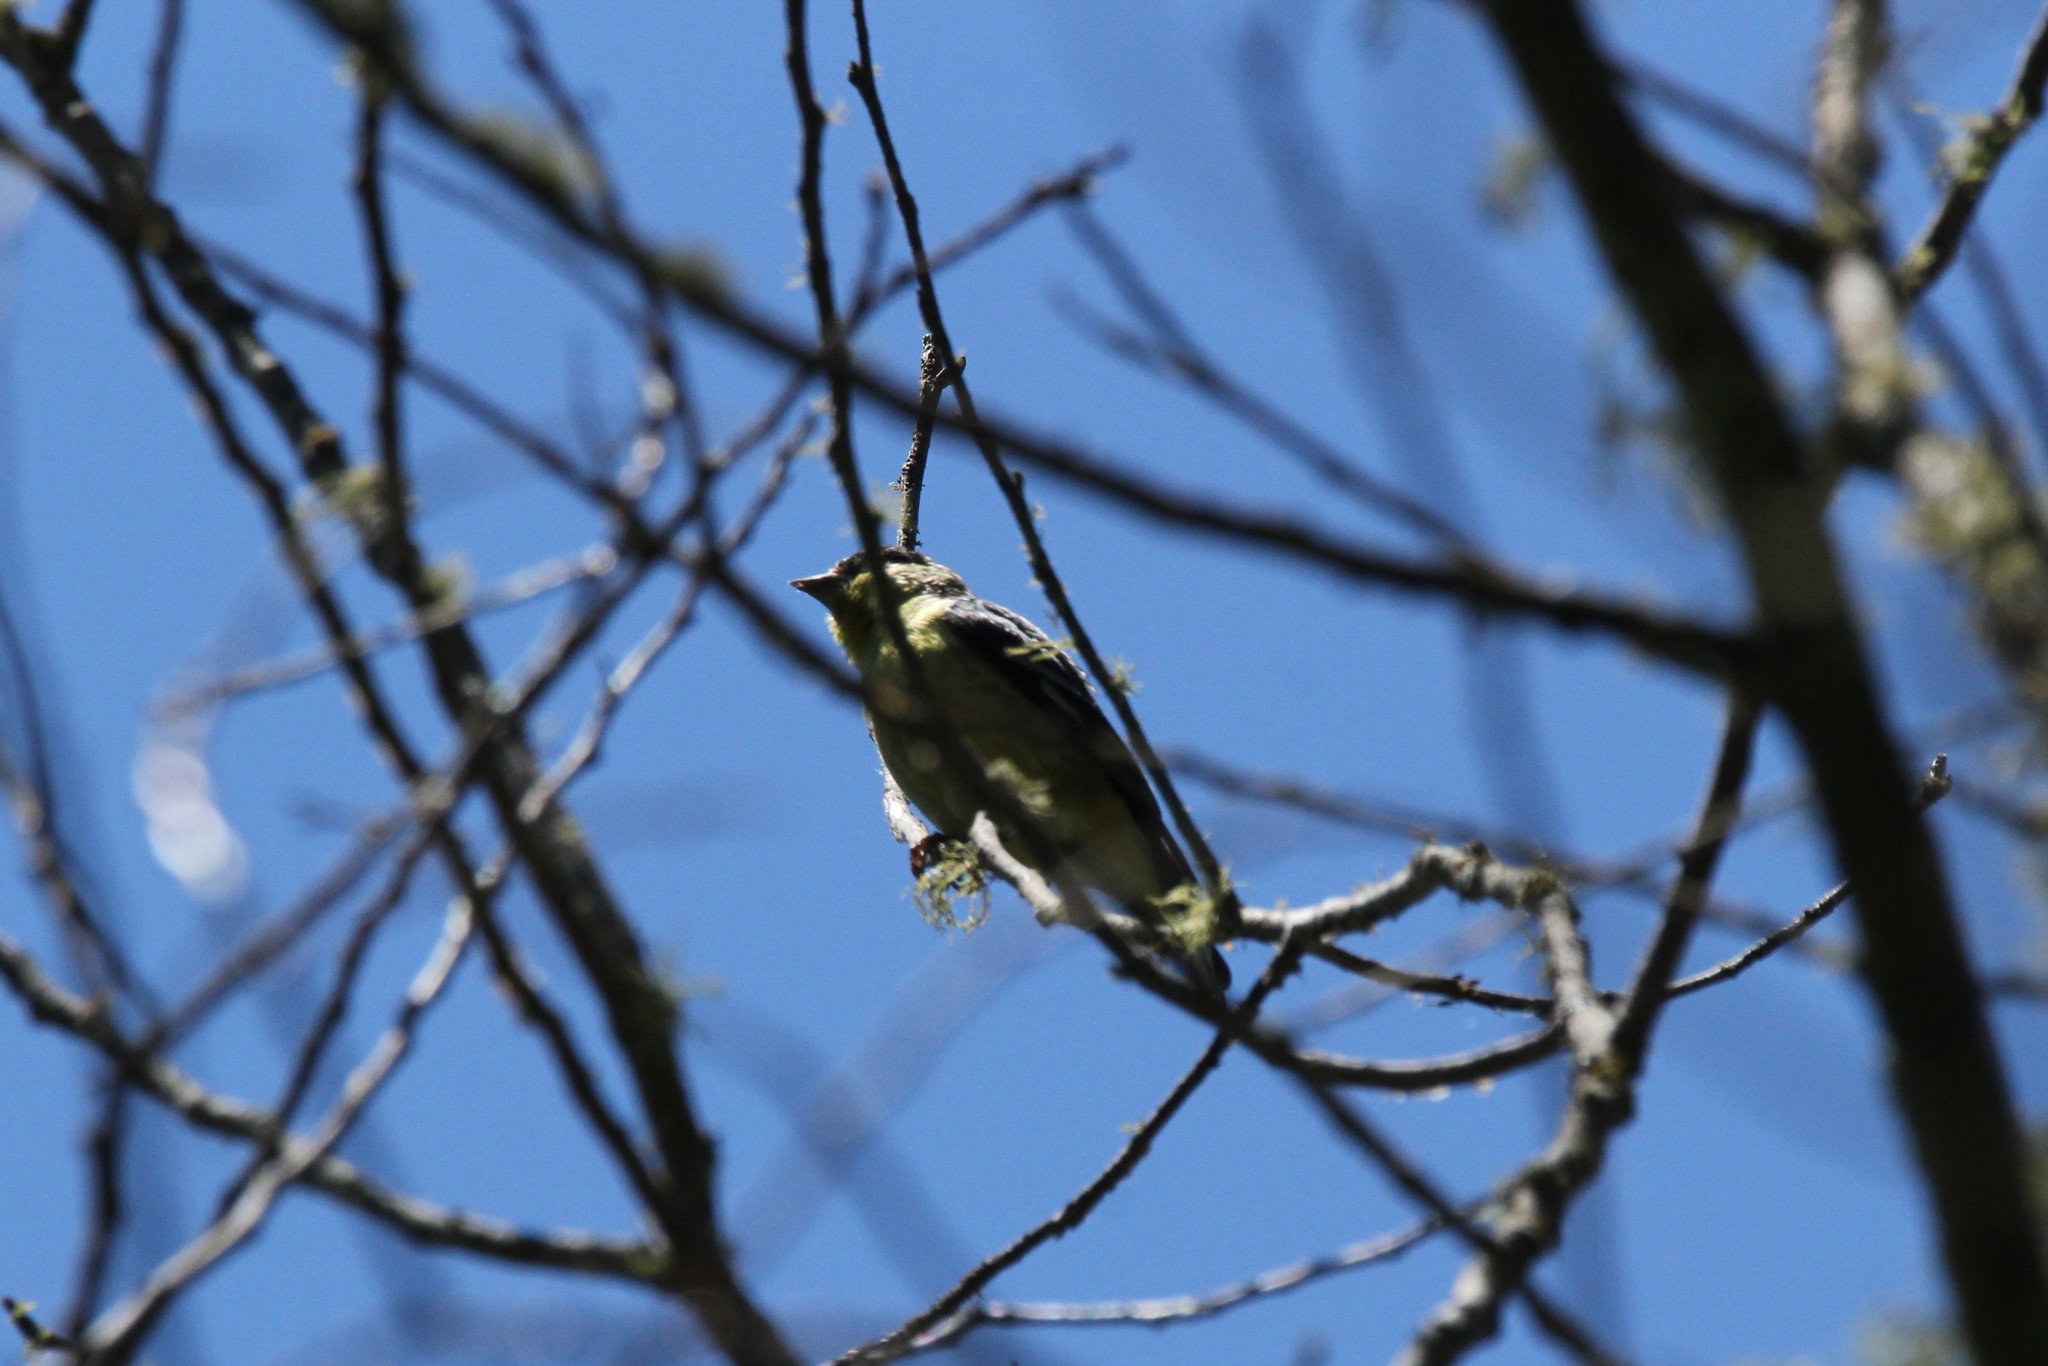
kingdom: Animalia
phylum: Chordata
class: Aves
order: Passeriformes
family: Fringillidae
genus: Spinus
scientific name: Spinus psaltria
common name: Lesser goldfinch
